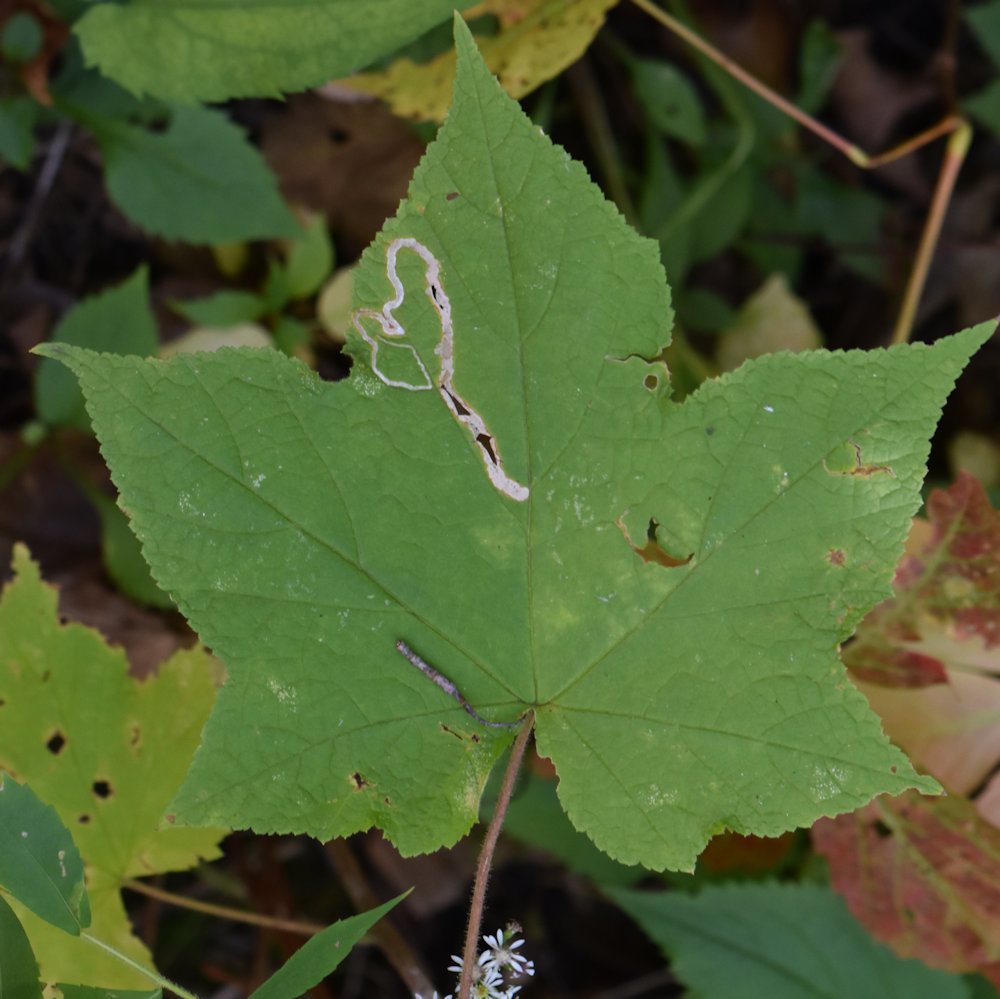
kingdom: Animalia
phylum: Arthropoda
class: Insecta
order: Diptera
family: Agromyzidae
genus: Agromyza
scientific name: Agromyza vockerothi
